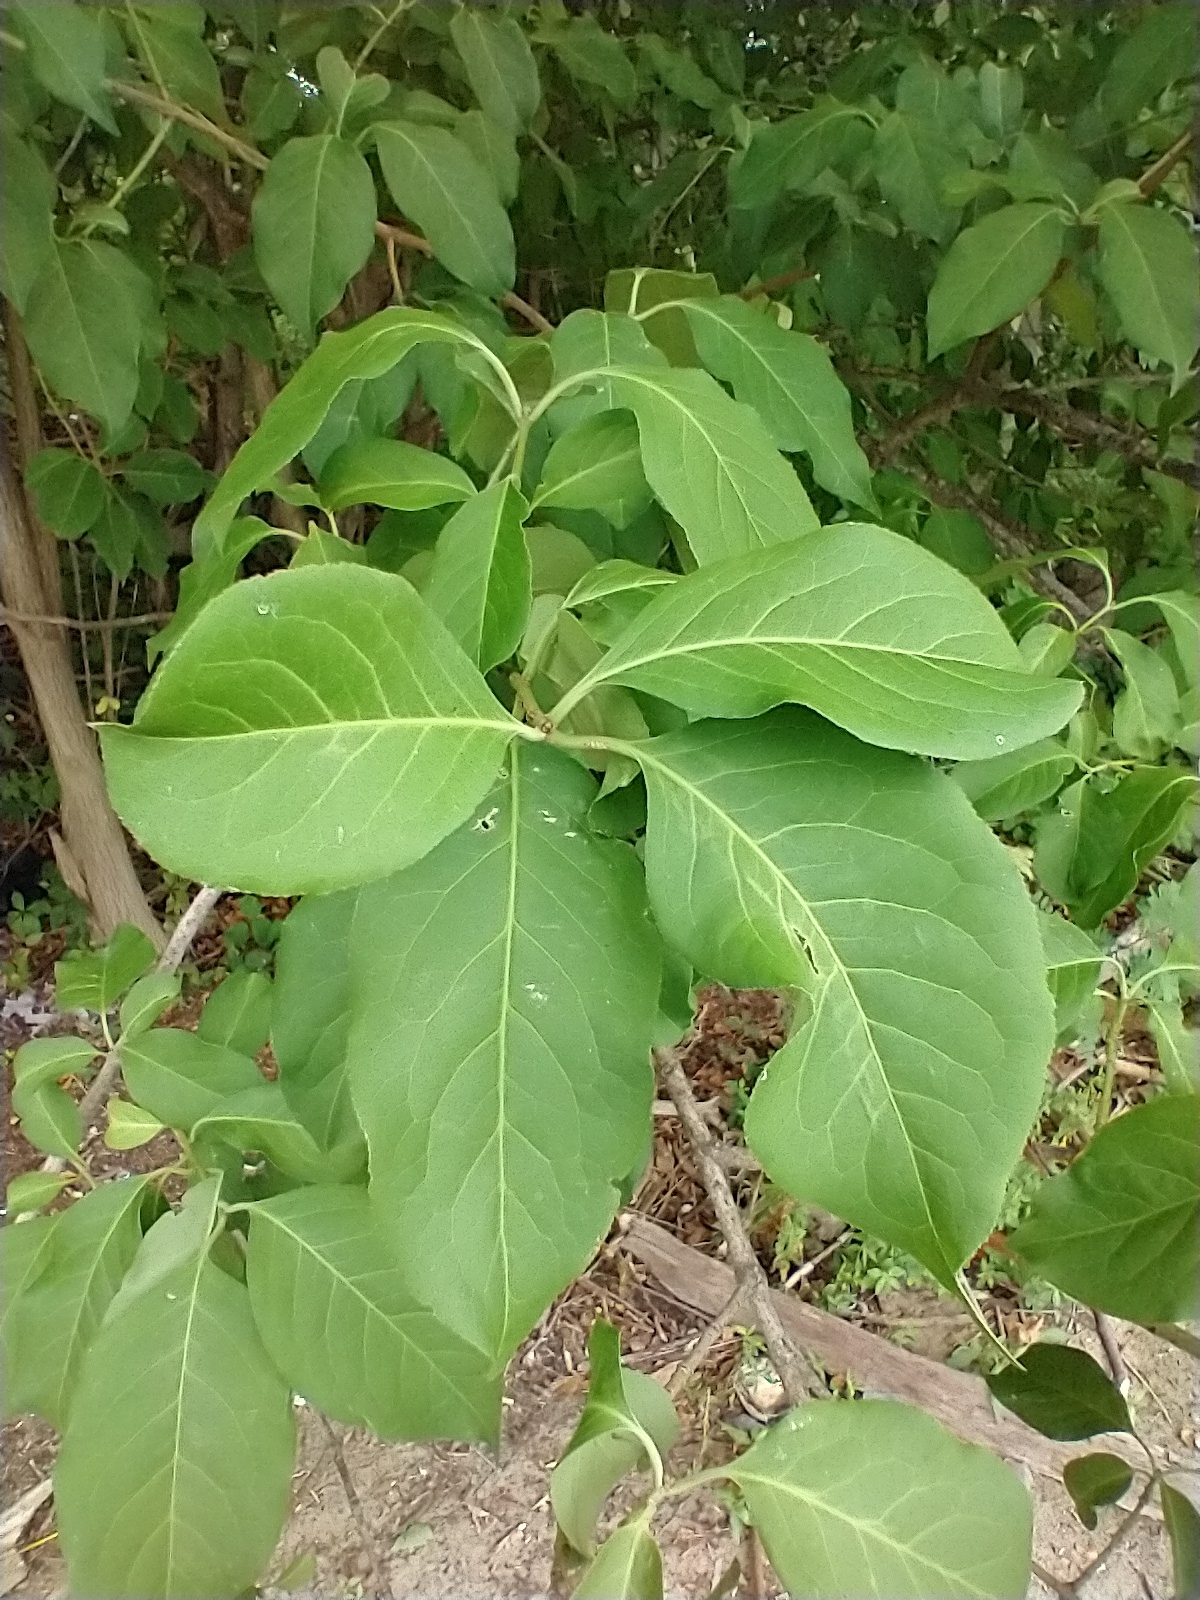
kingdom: Plantae
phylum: Tracheophyta
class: Magnoliopsida
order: Lamiales
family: Oleaceae
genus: Syringa
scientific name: Syringa josikaea
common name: Hungarian lilac
